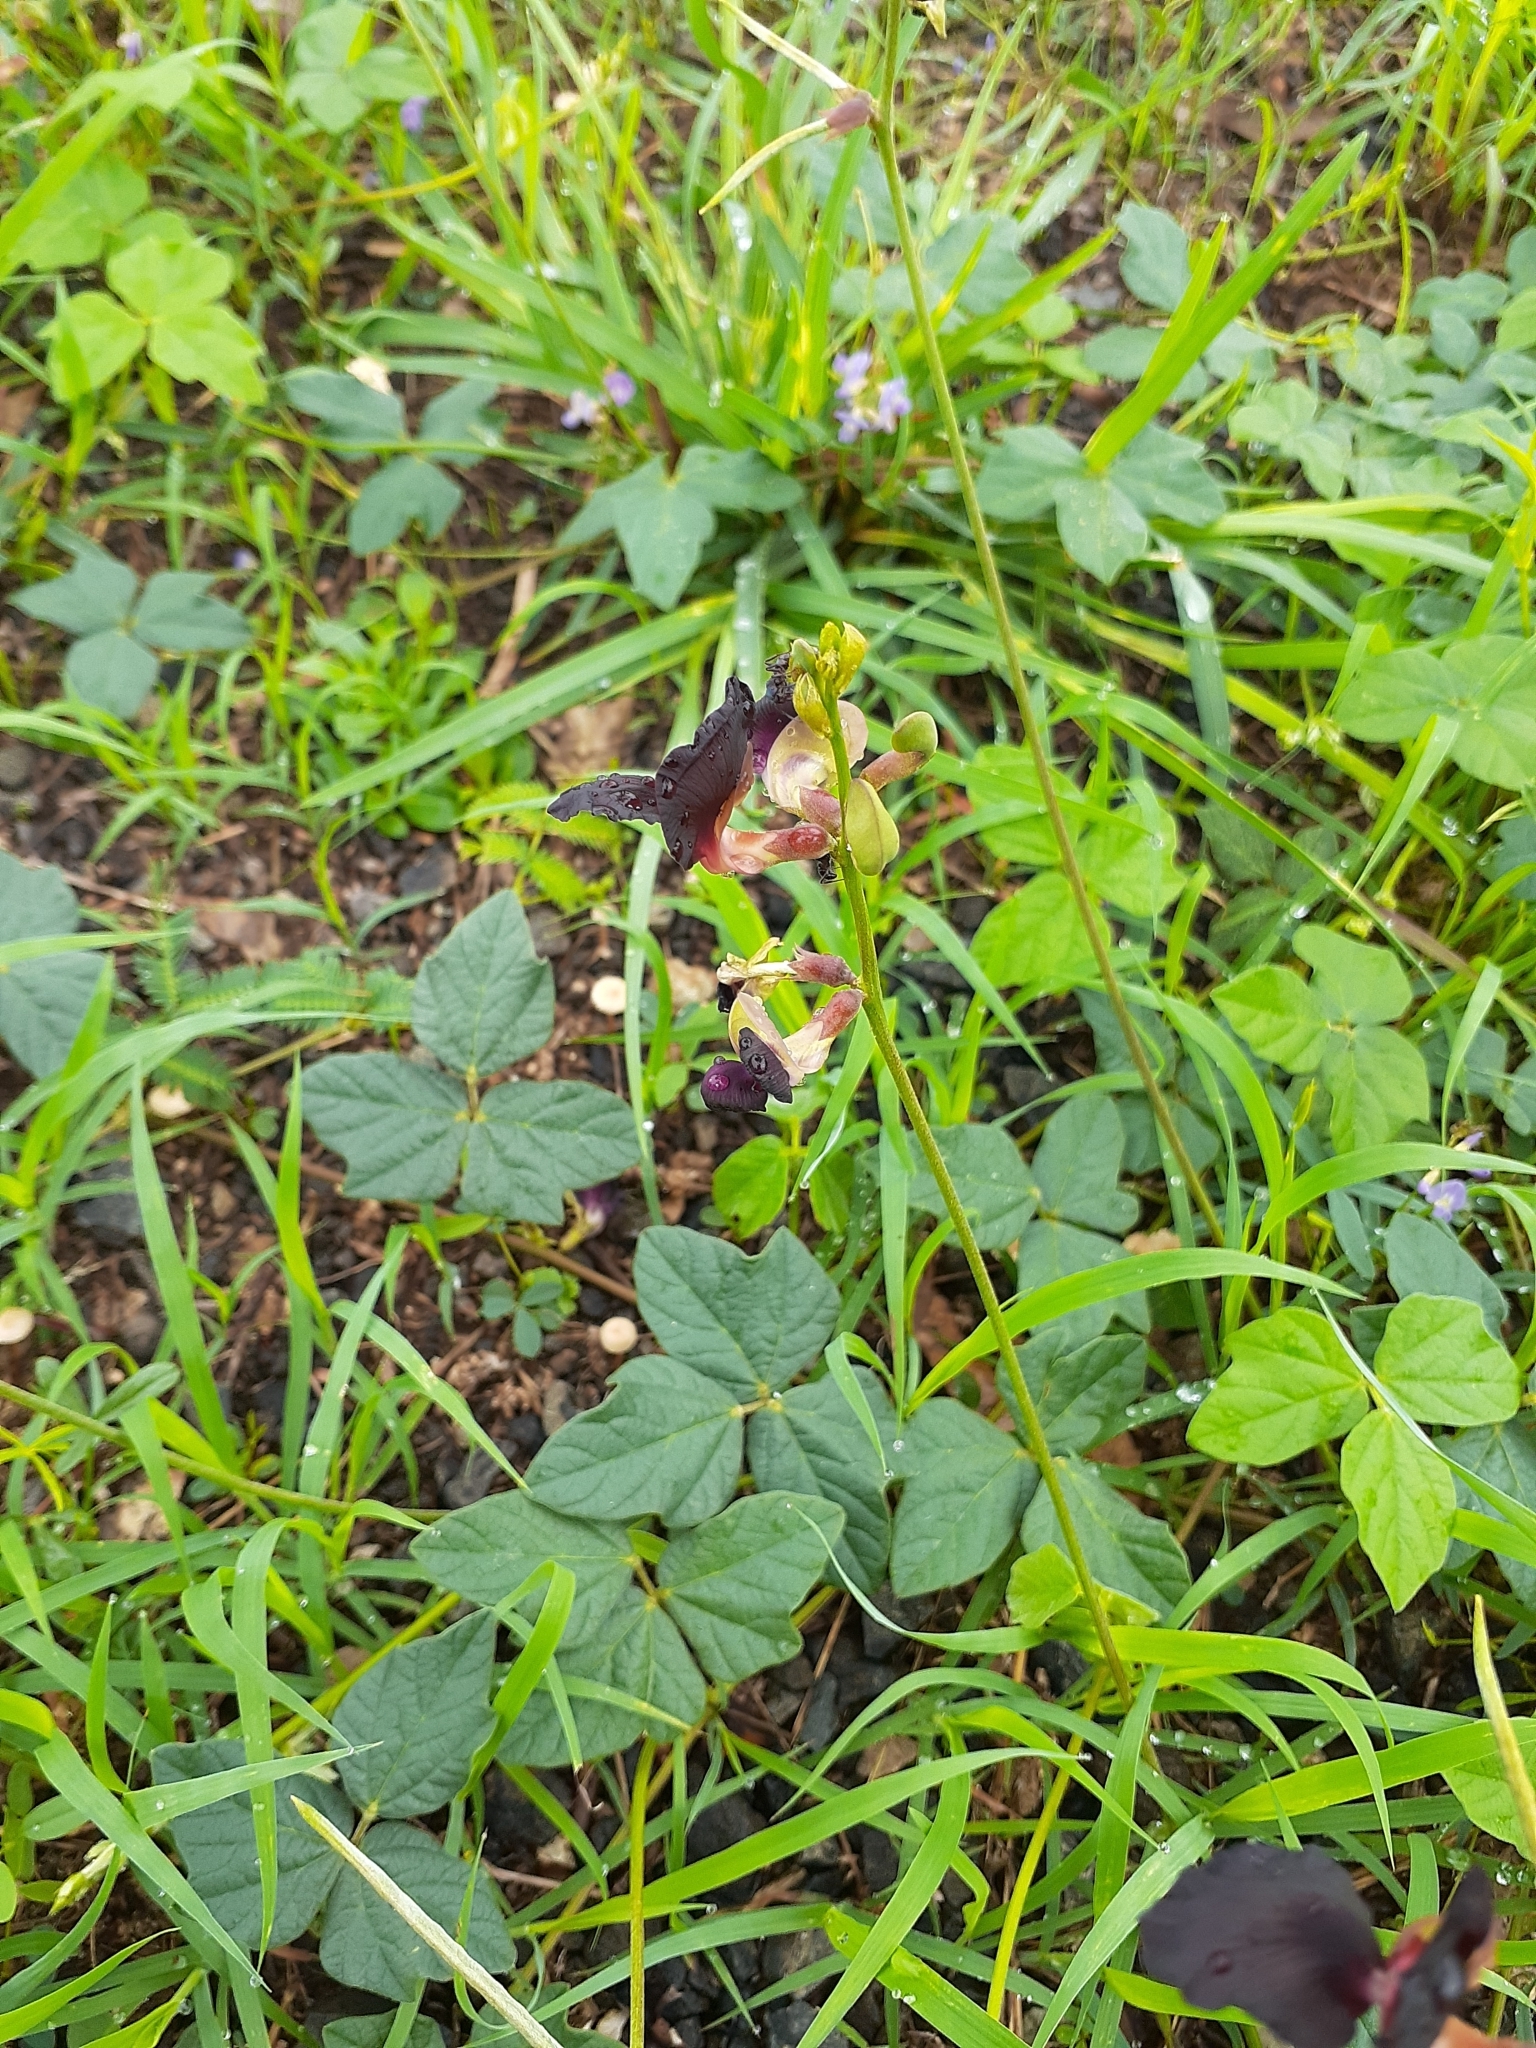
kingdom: Plantae
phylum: Tracheophyta
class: Magnoliopsida
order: Fabales
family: Fabaceae
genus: Macroptilium
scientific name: Macroptilium atropurpureum
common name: Purple bushbean
